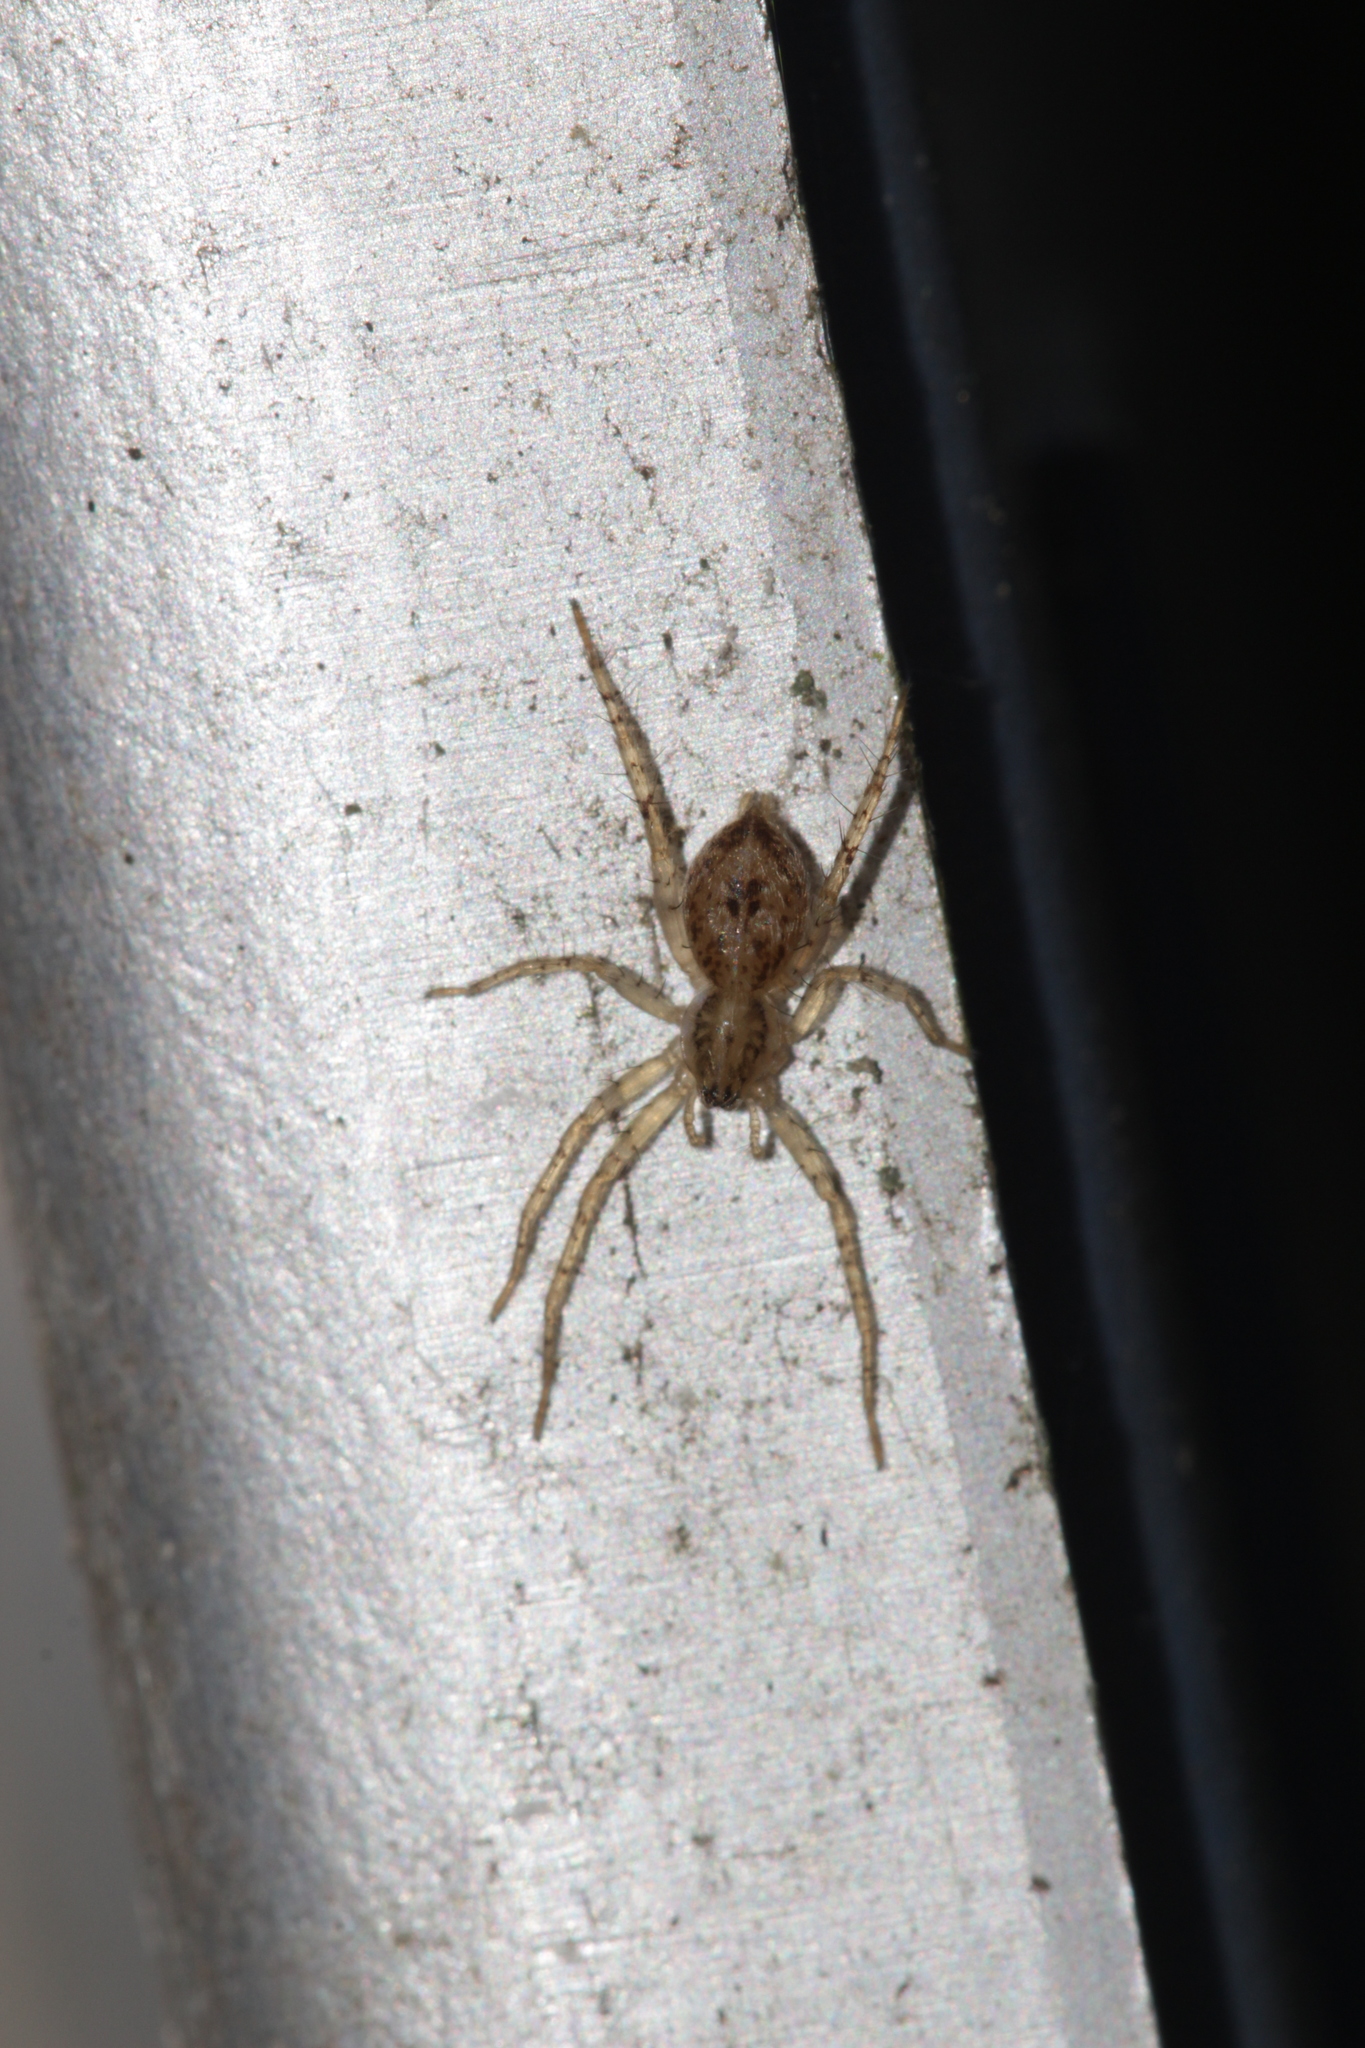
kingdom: Animalia
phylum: Arthropoda
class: Arachnida
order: Araneae
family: Anyphaenidae
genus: Anyphaena
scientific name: Anyphaena accentuata
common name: Buzzing spider
